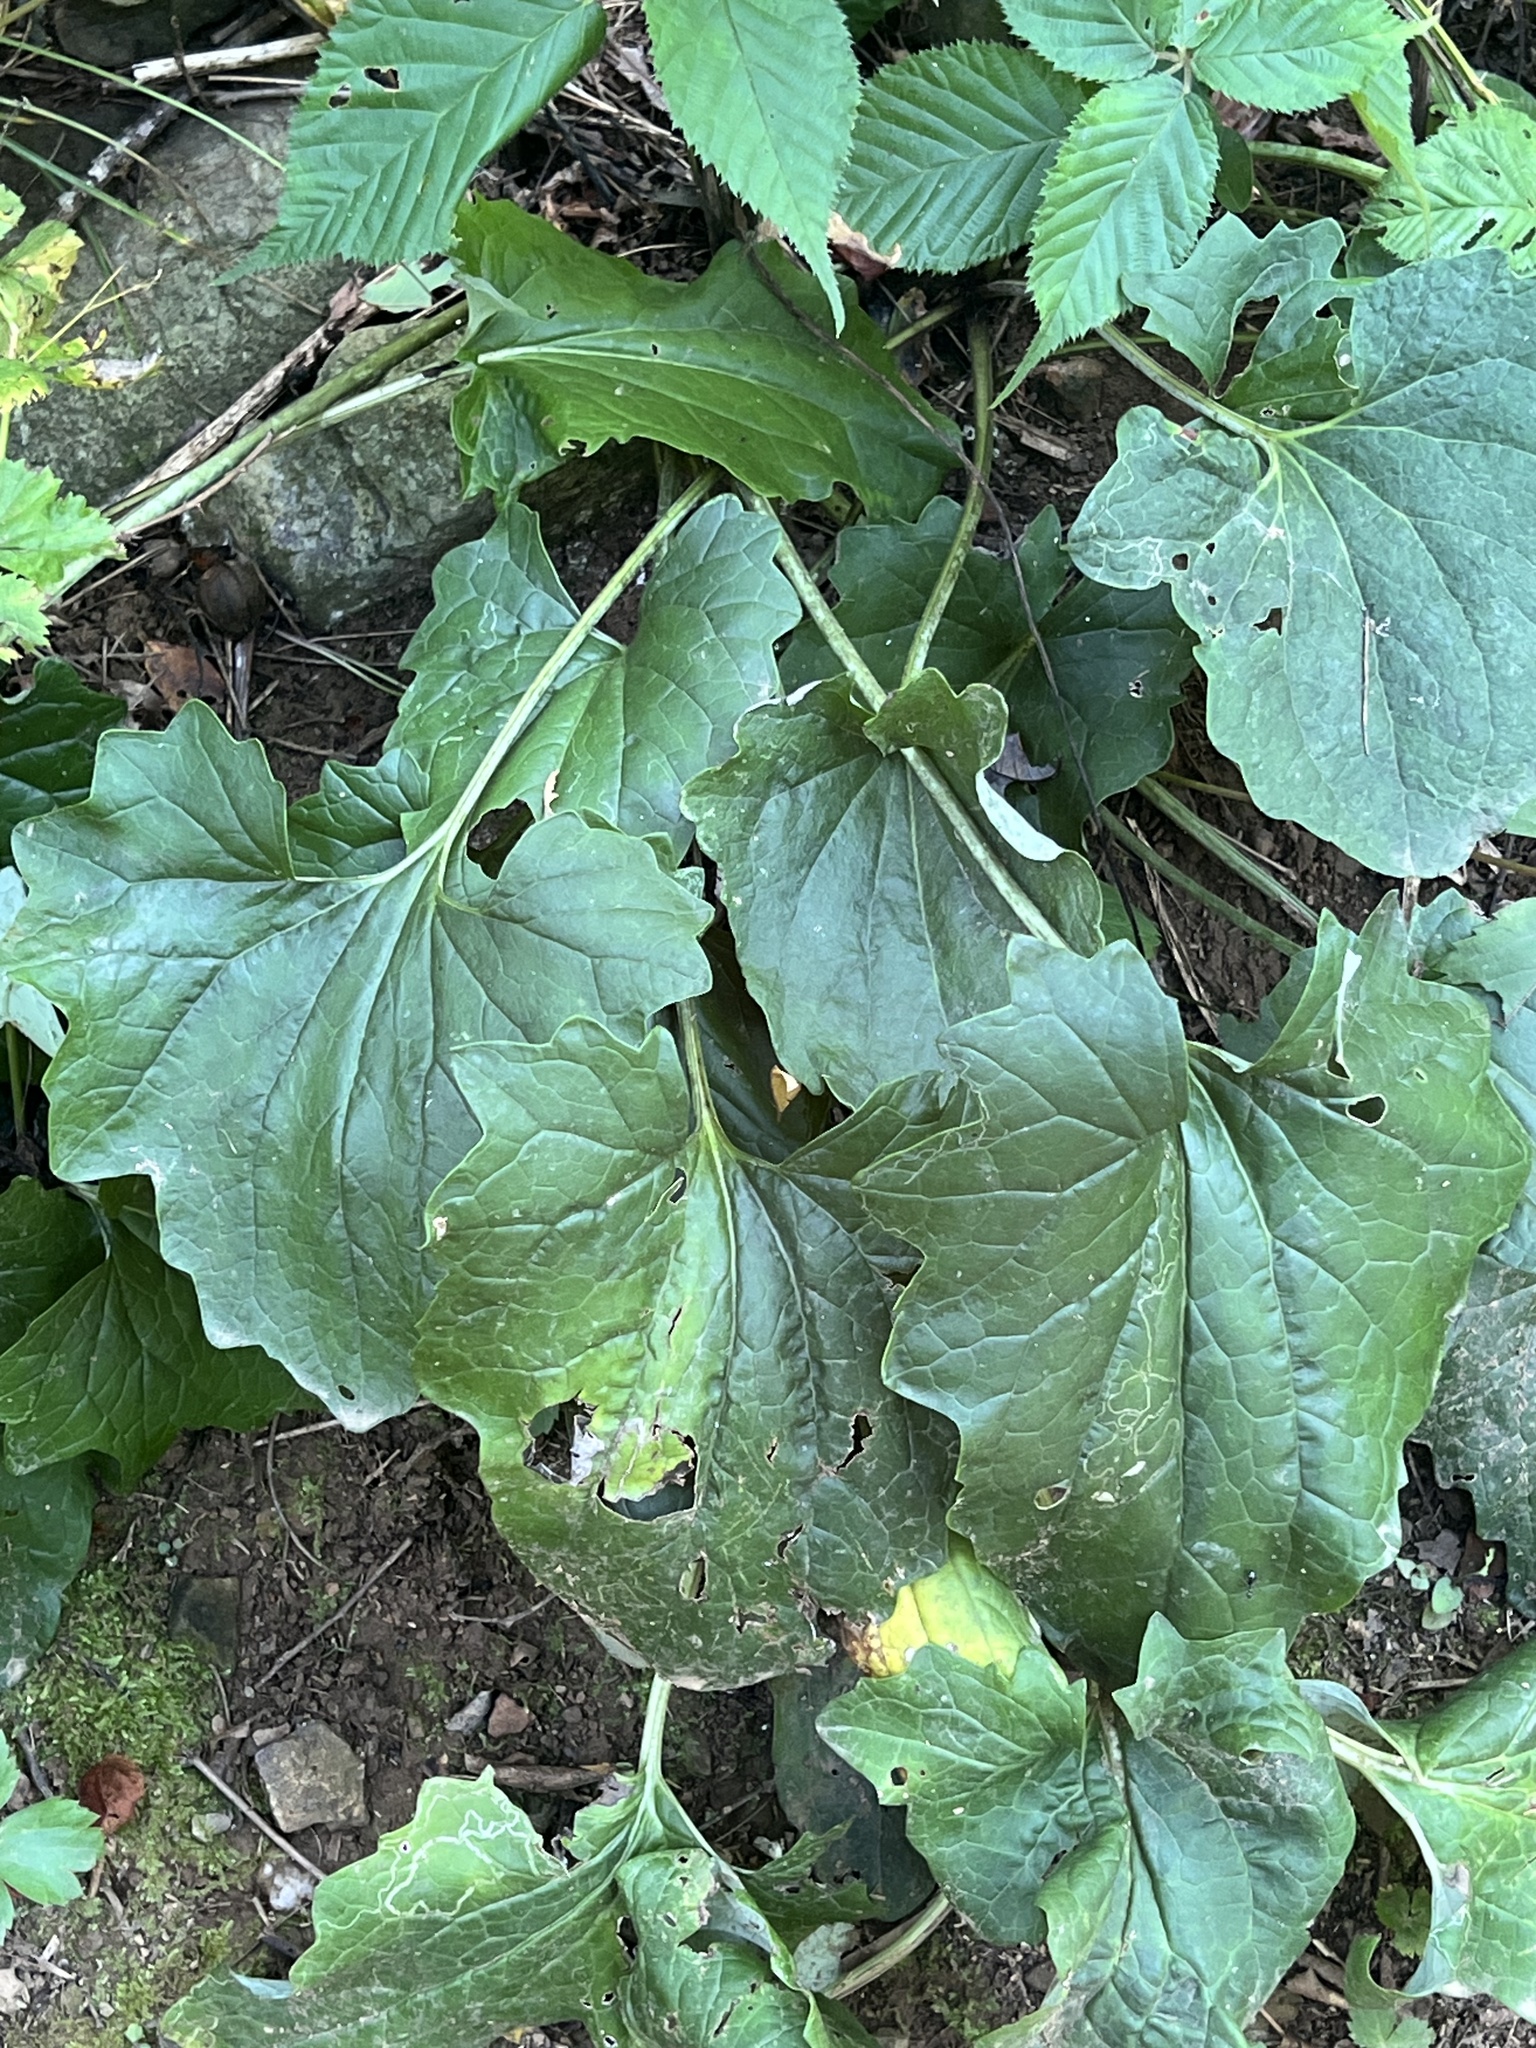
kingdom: Plantae
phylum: Tracheophyta
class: Magnoliopsida
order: Asterales
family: Asteraceae
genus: Arnoglossum
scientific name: Arnoglossum atriplicifolium
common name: Pale indian-plantain
